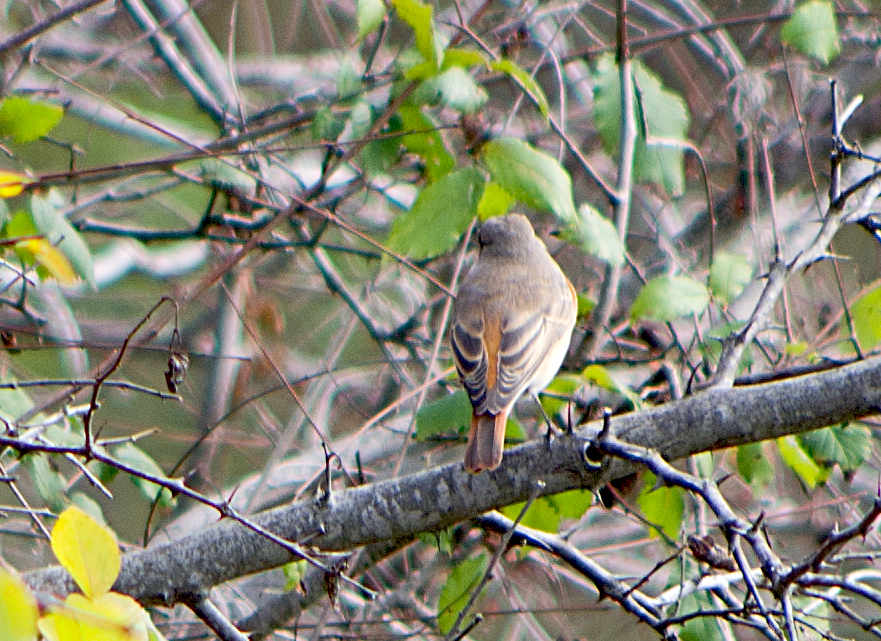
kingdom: Animalia
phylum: Chordata
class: Aves
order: Passeriformes
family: Muscicapidae
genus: Phoenicurus
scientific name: Phoenicurus phoenicurus
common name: Common redstart
